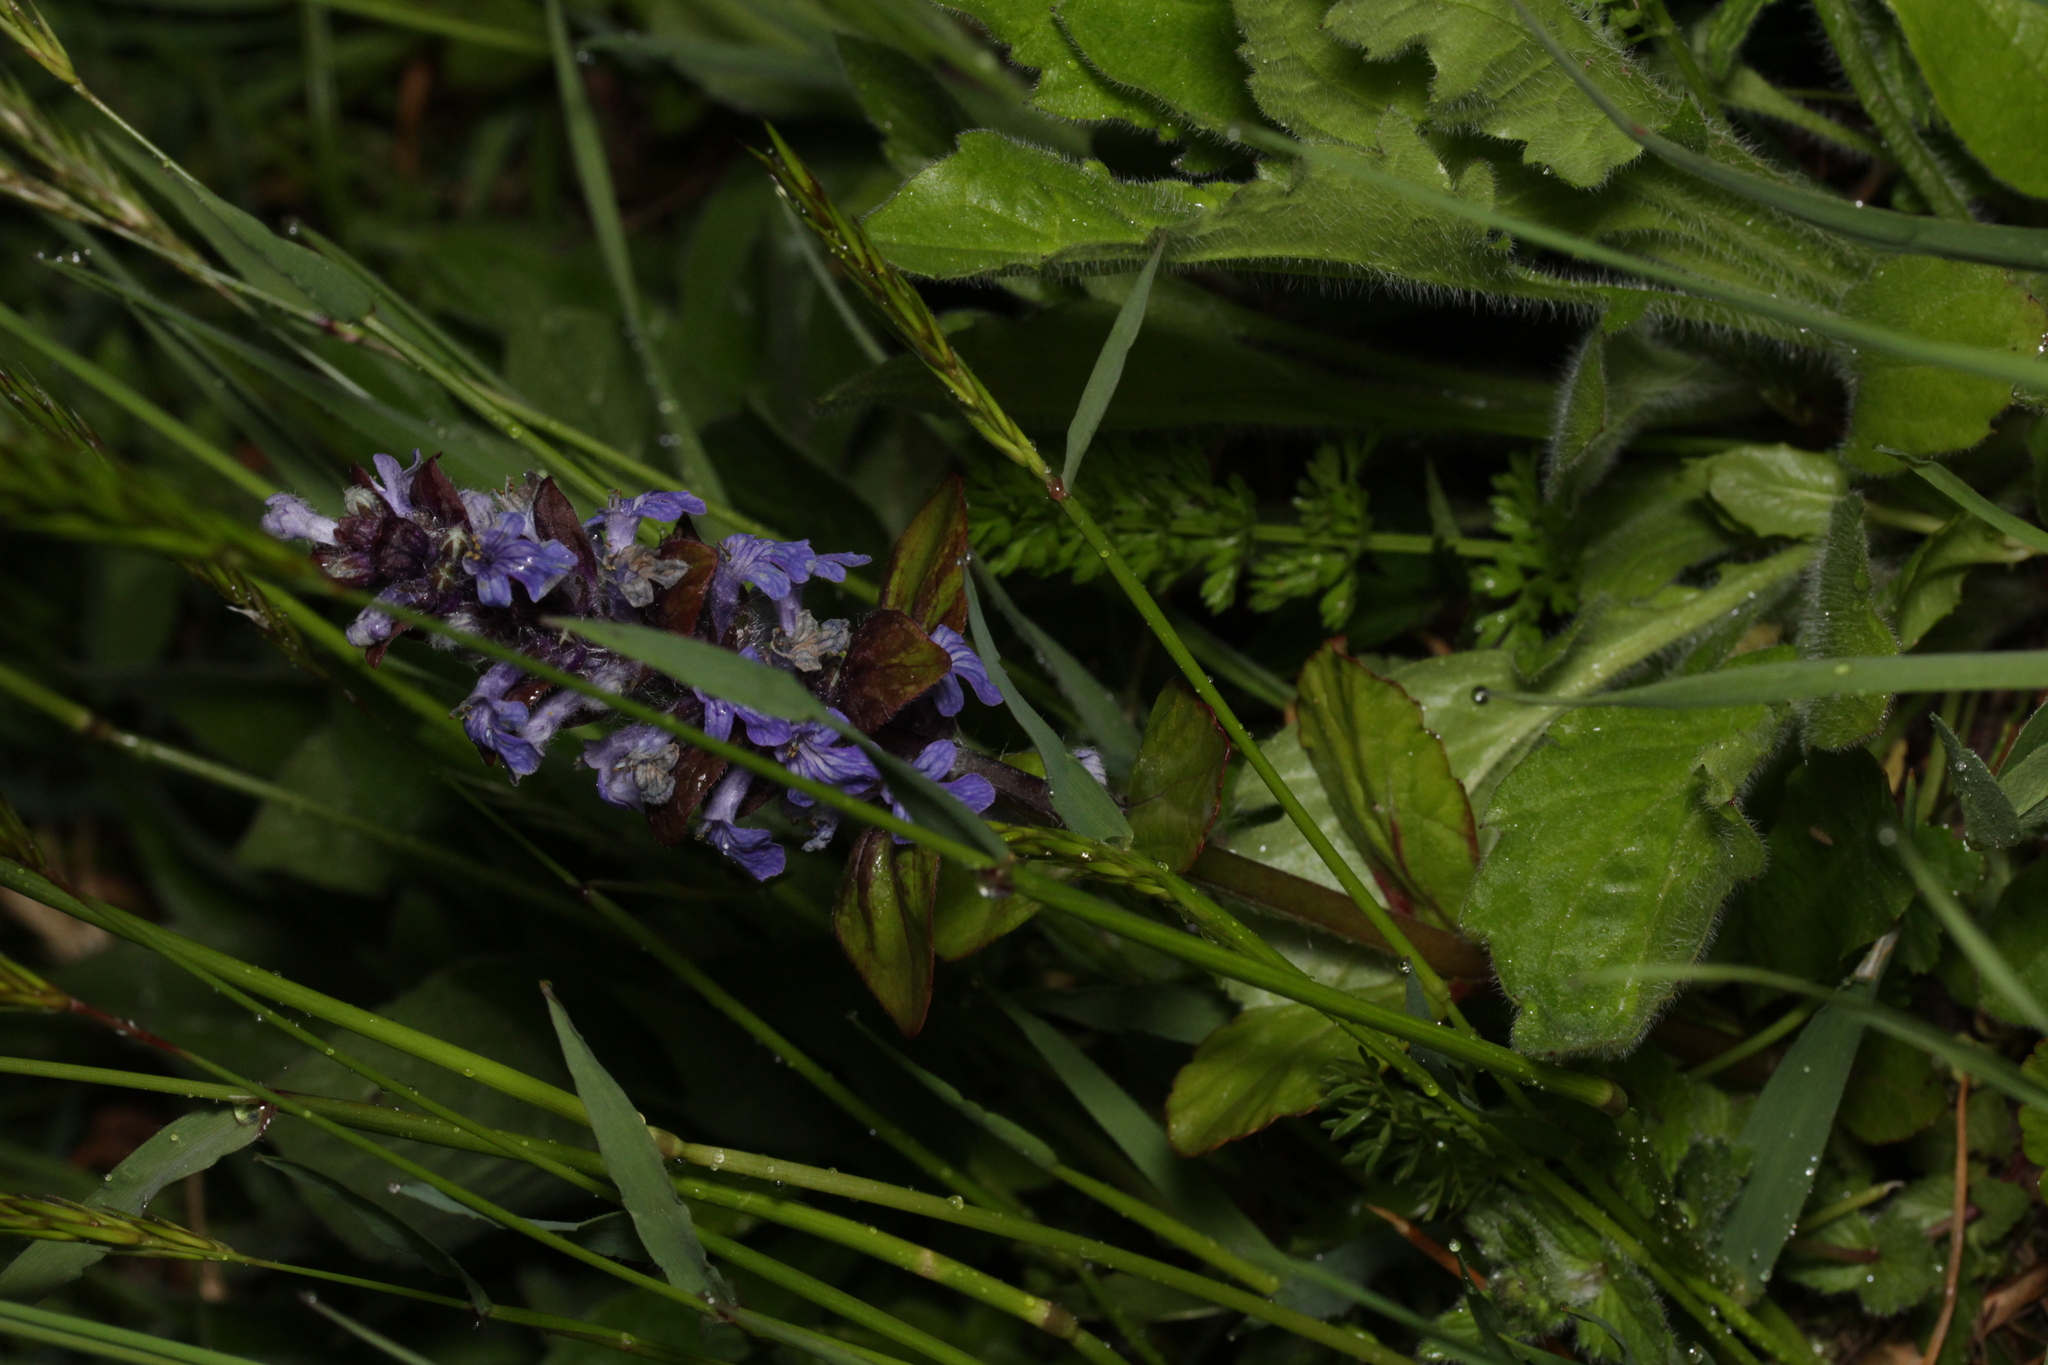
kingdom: Plantae
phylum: Tracheophyta
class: Magnoliopsida
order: Lamiales
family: Lamiaceae
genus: Ajuga
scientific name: Ajuga reptans
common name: Bugle
